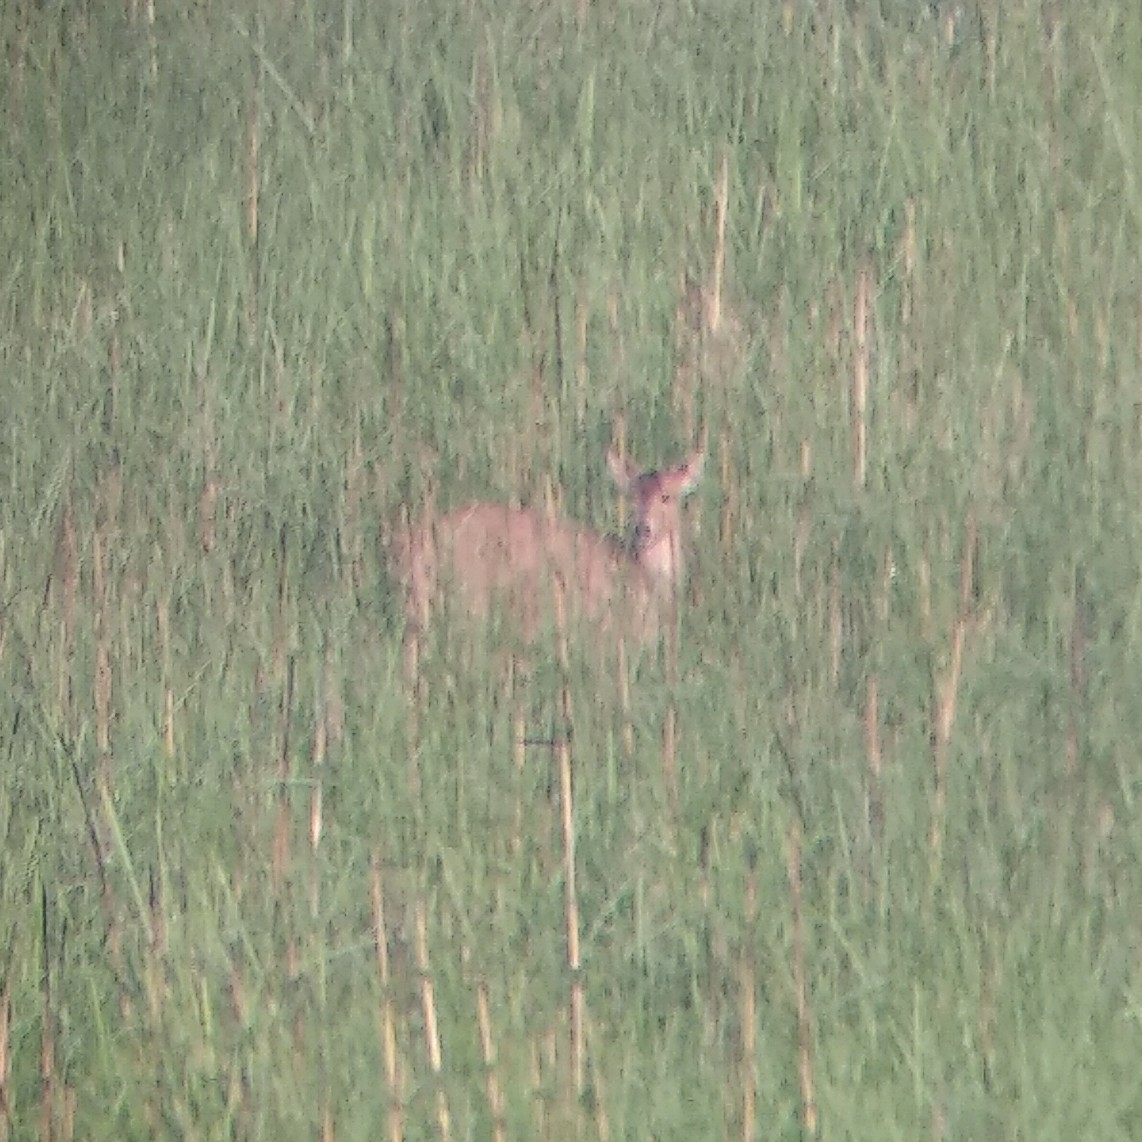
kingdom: Animalia
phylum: Chordata
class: Mammalia
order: Artiodactyla
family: Cervidae
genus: Axis
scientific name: Axis porcinus
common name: Hog deer
